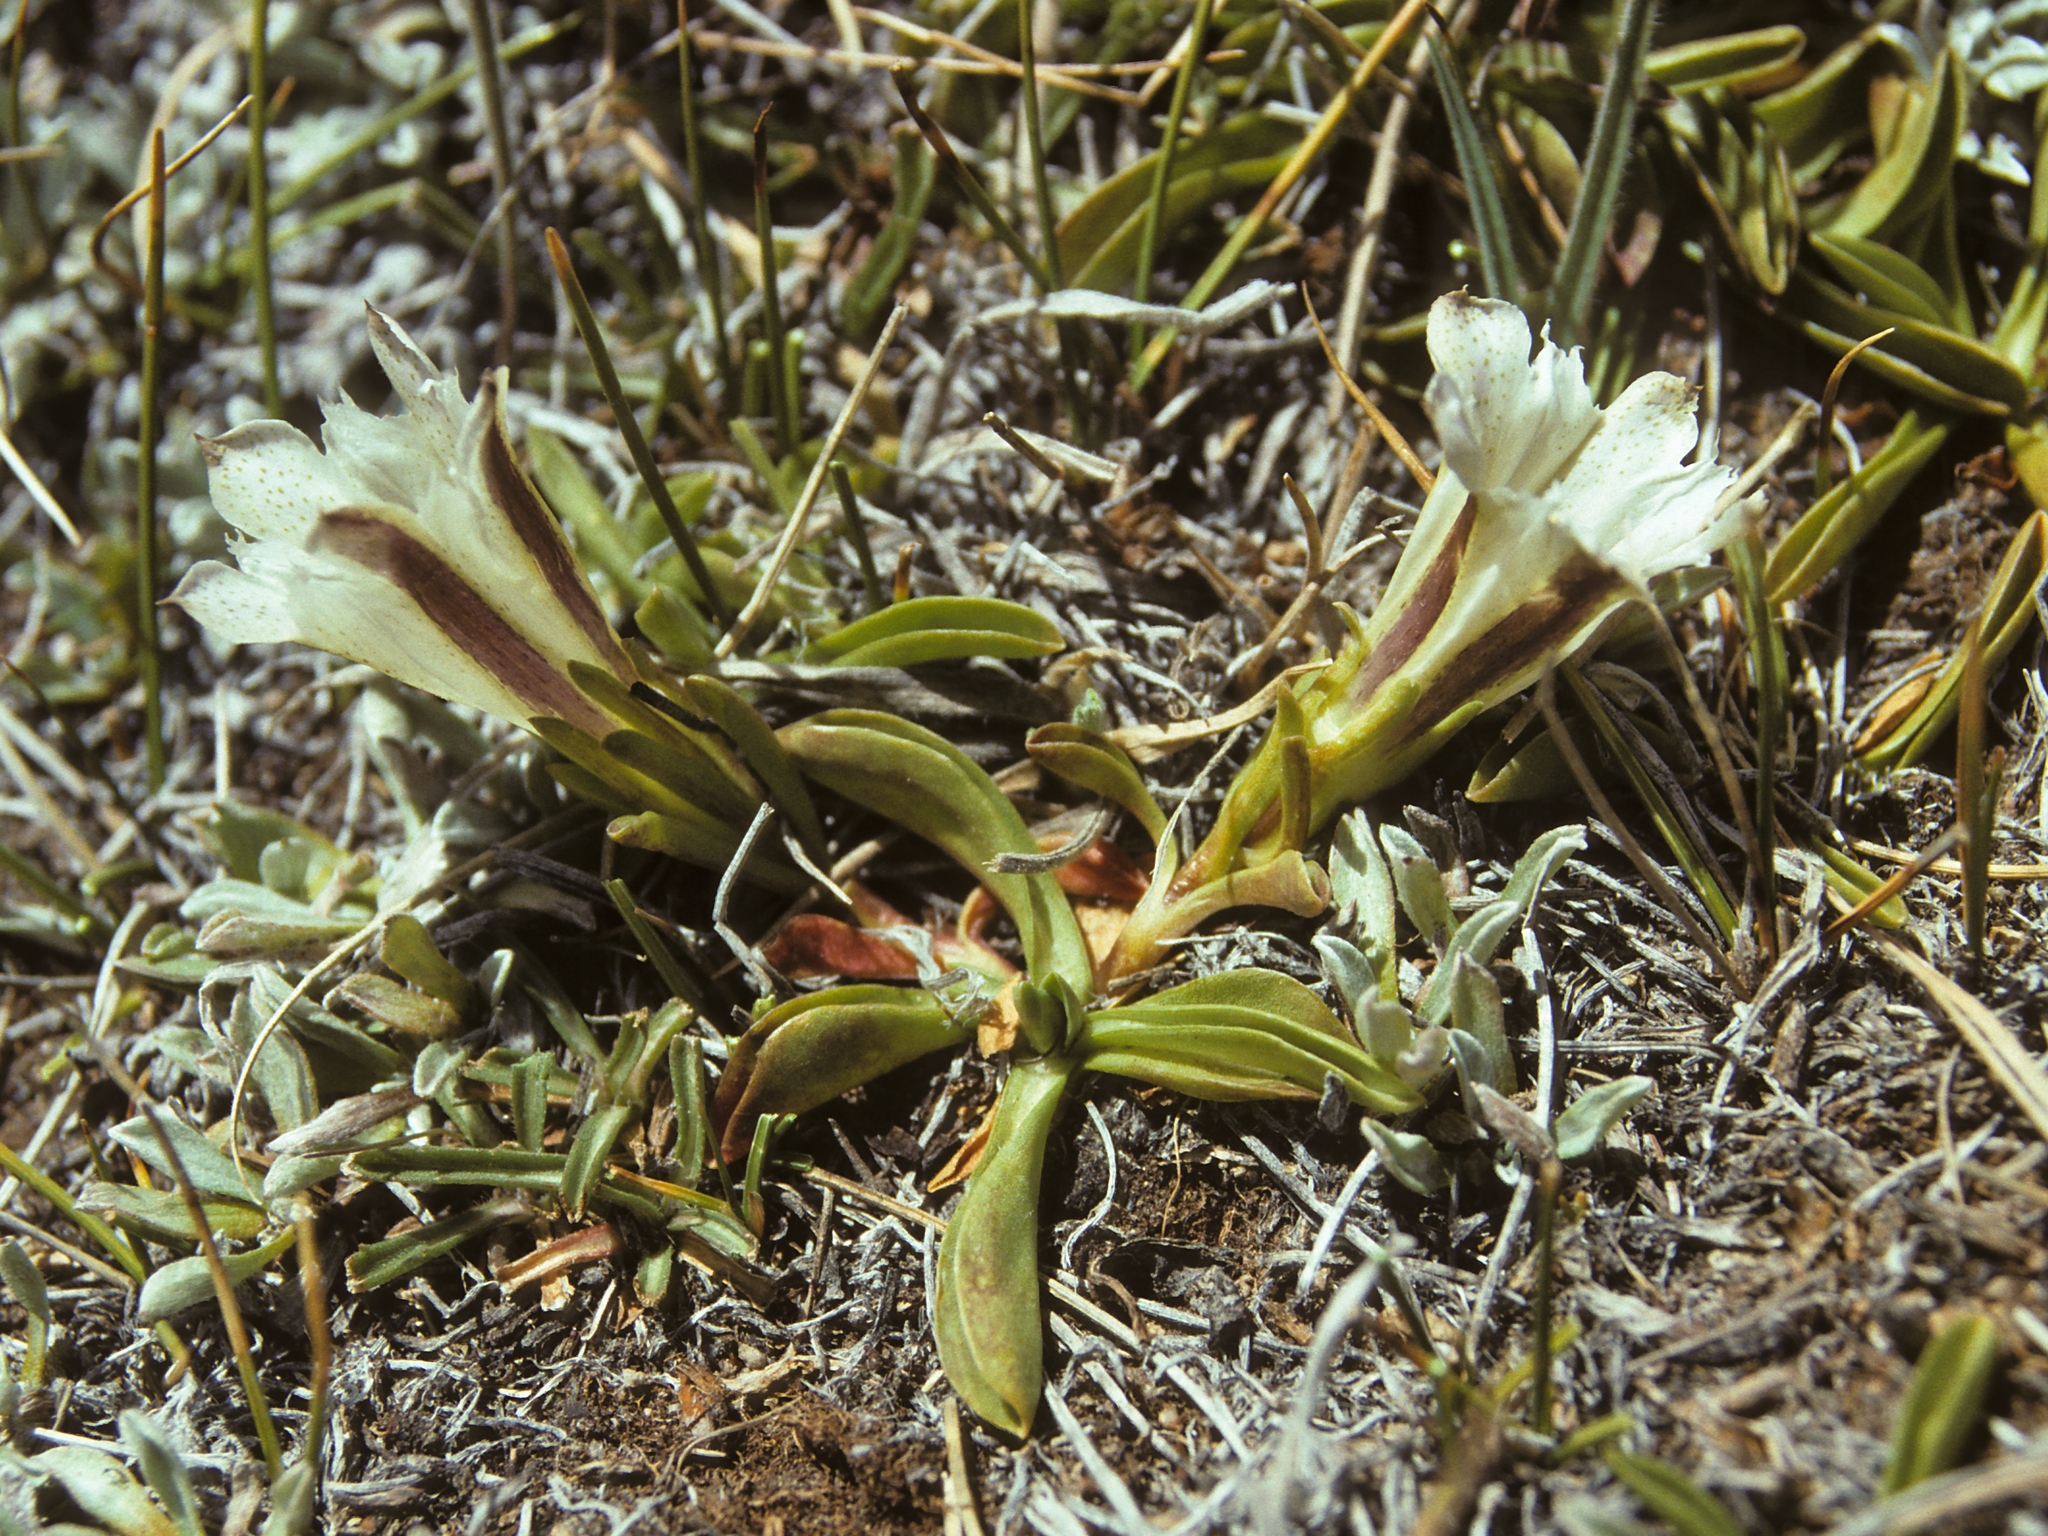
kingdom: Plantae
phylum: Tracheophyta
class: Magnoliopsida
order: Gentianales
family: Gentianaceae
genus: Gentiana
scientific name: Gentiana newberryi
